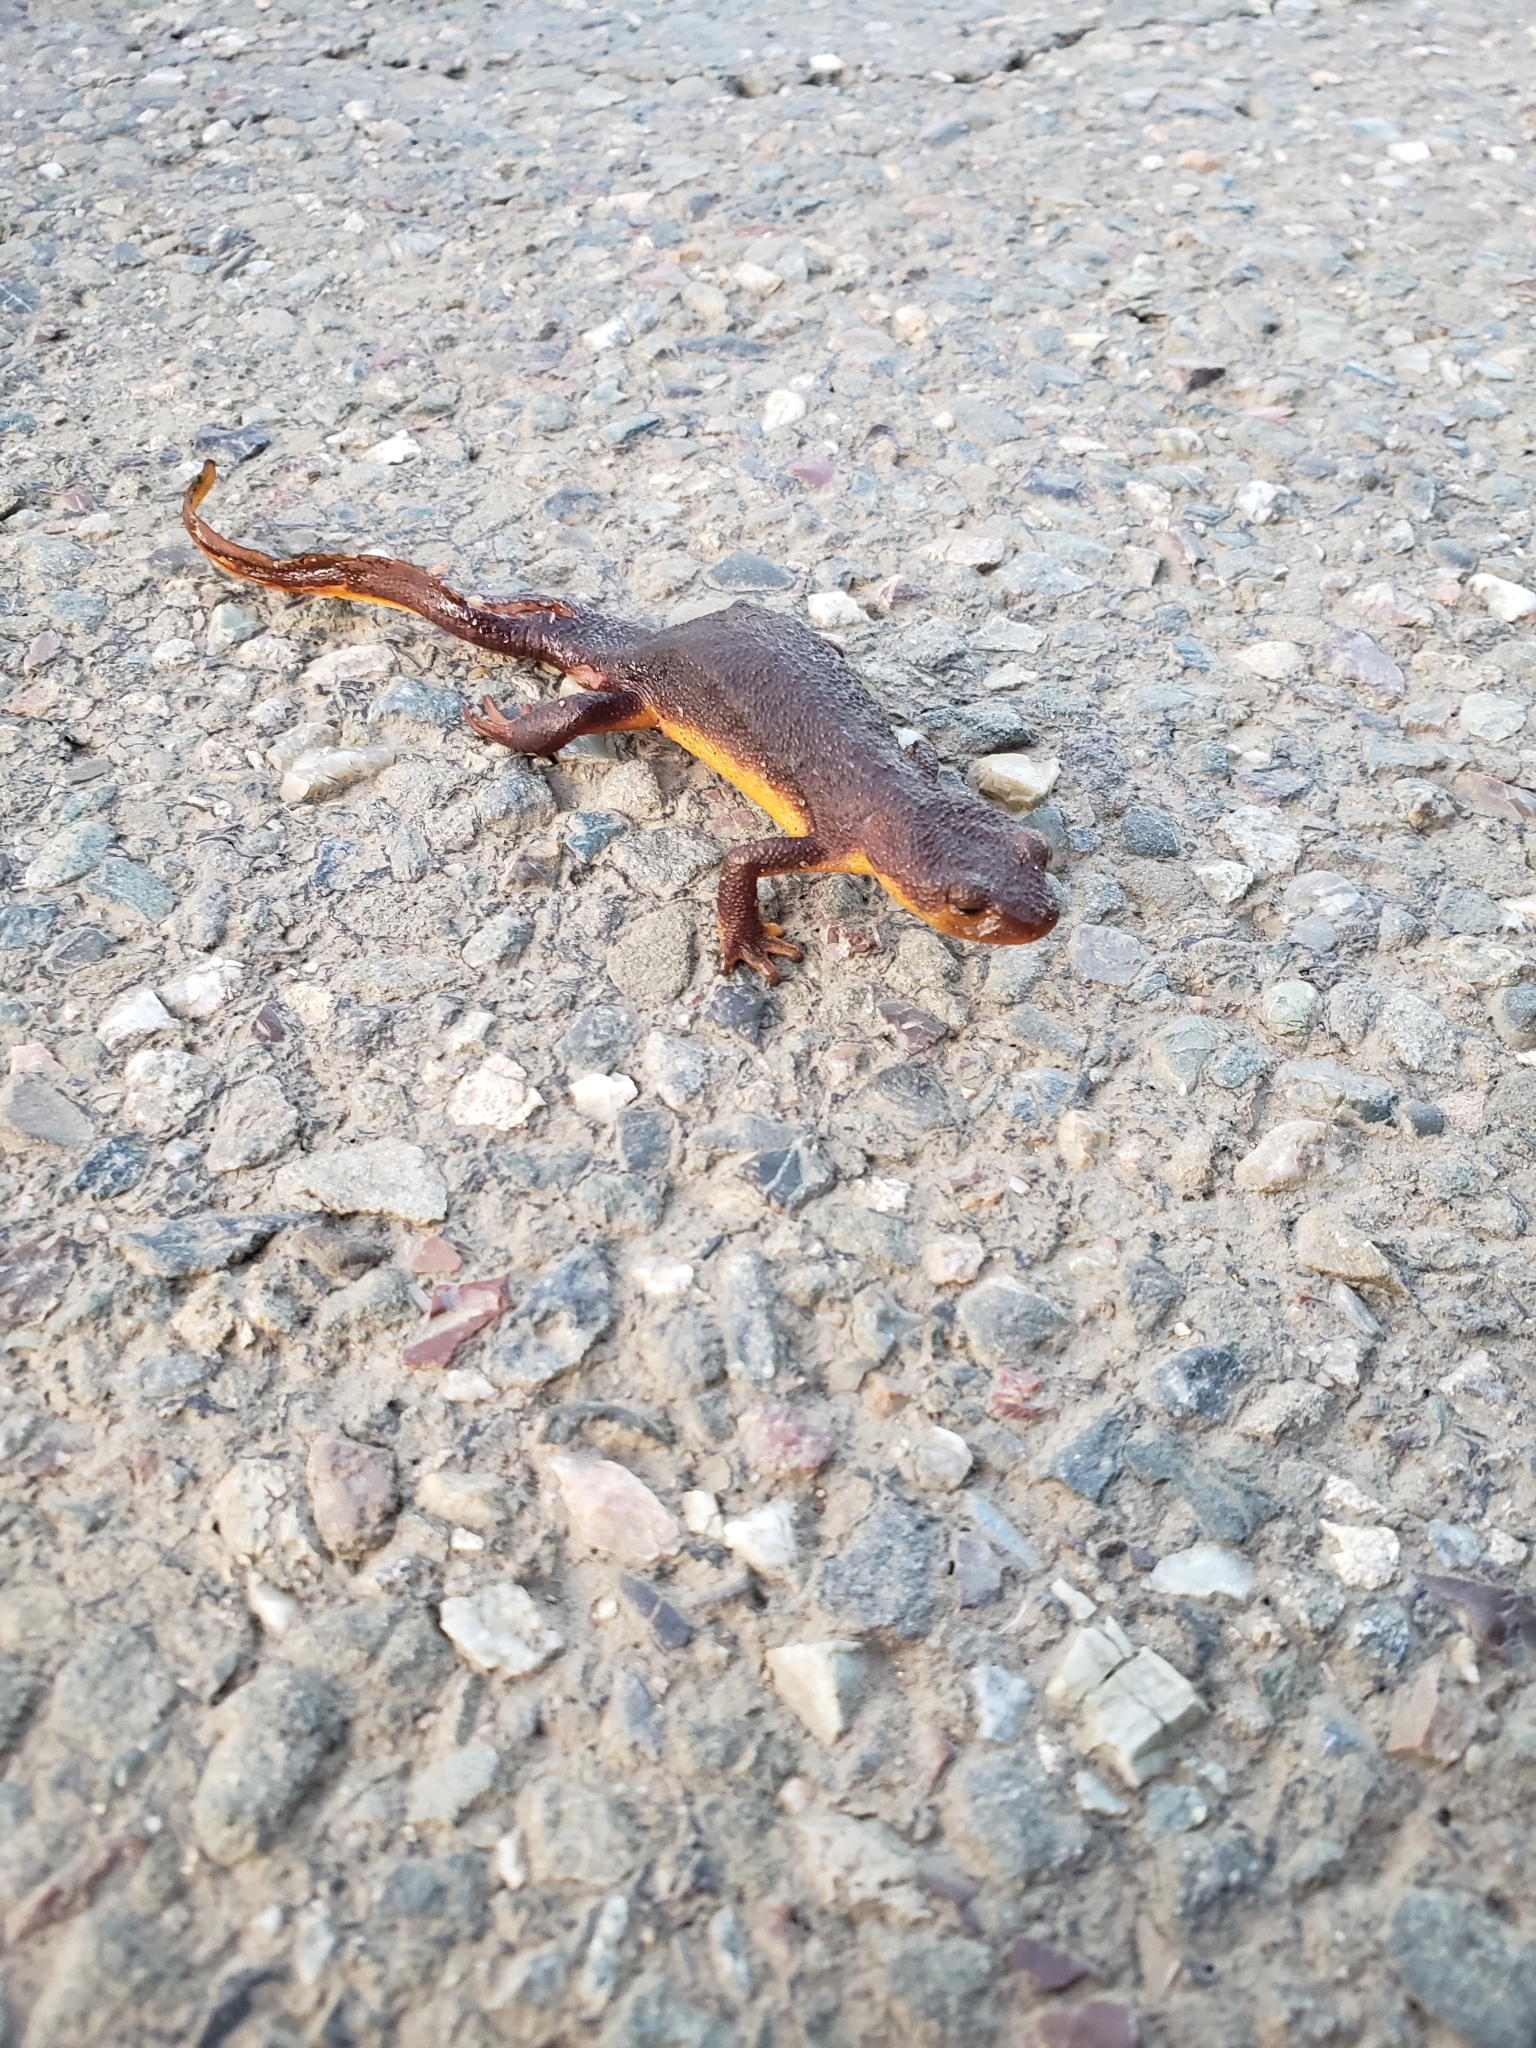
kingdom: Animalia
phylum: Chordata
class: Amphibia
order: Caudata
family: Salamandridae
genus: Taricha
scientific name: Taricha torosa
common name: California newt
